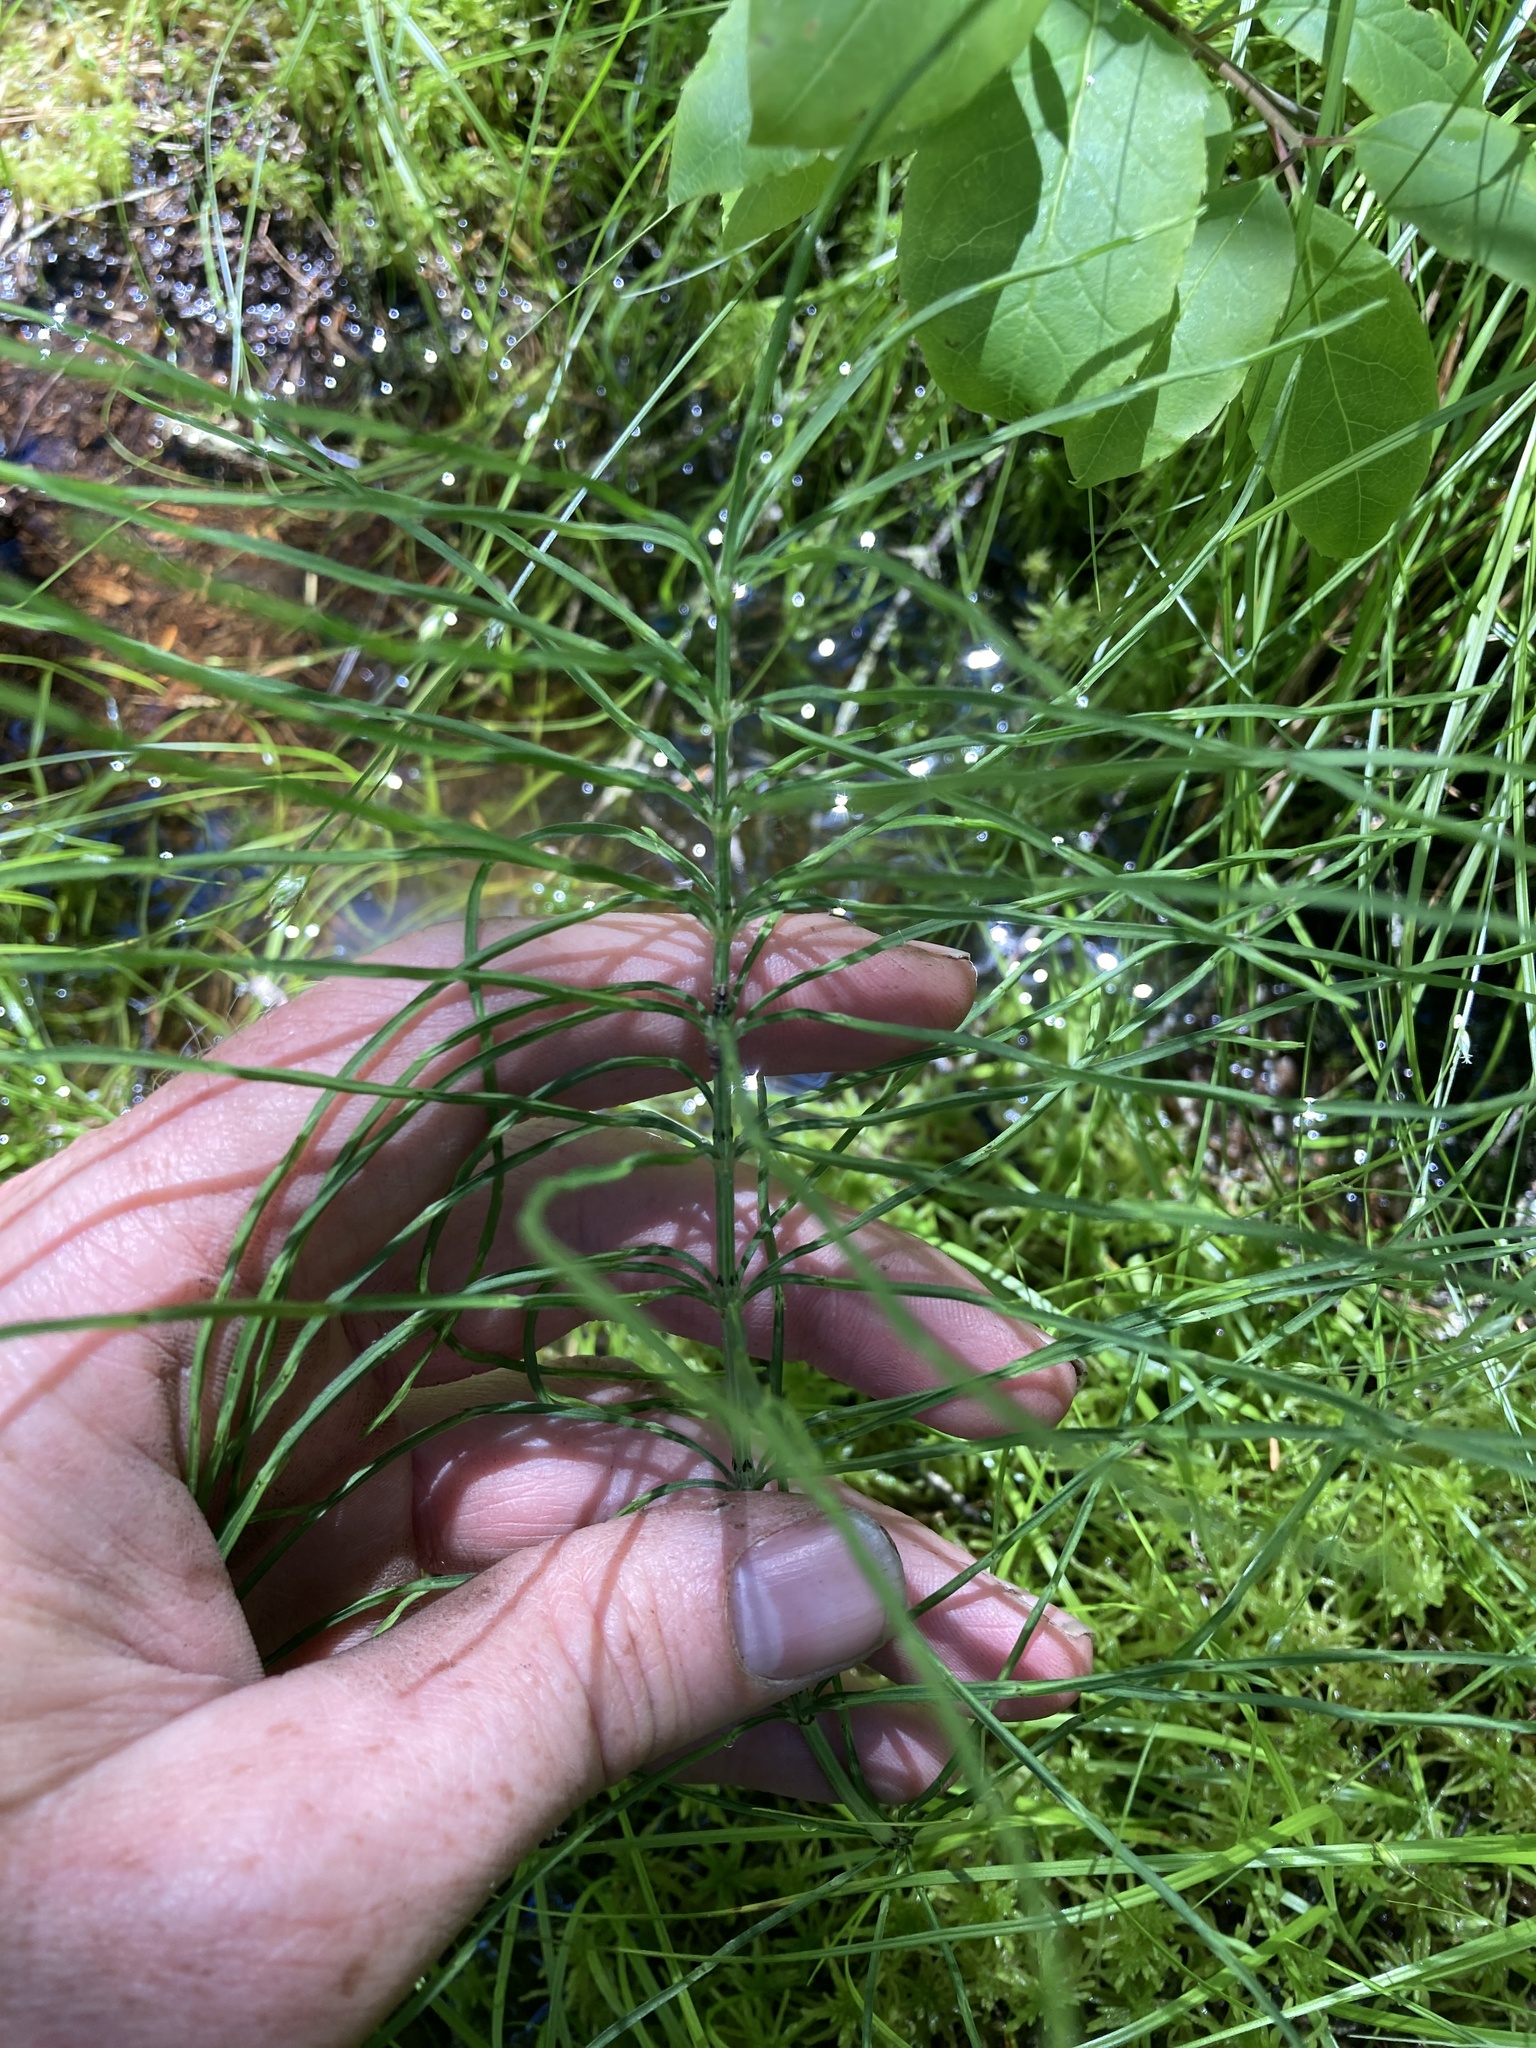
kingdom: Plantae
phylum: Tracheophyta
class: Polypodiopsida
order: Equisetales
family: Equisetaceae
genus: Equisetum
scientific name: Equisetum arvense
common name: Field horsetail
